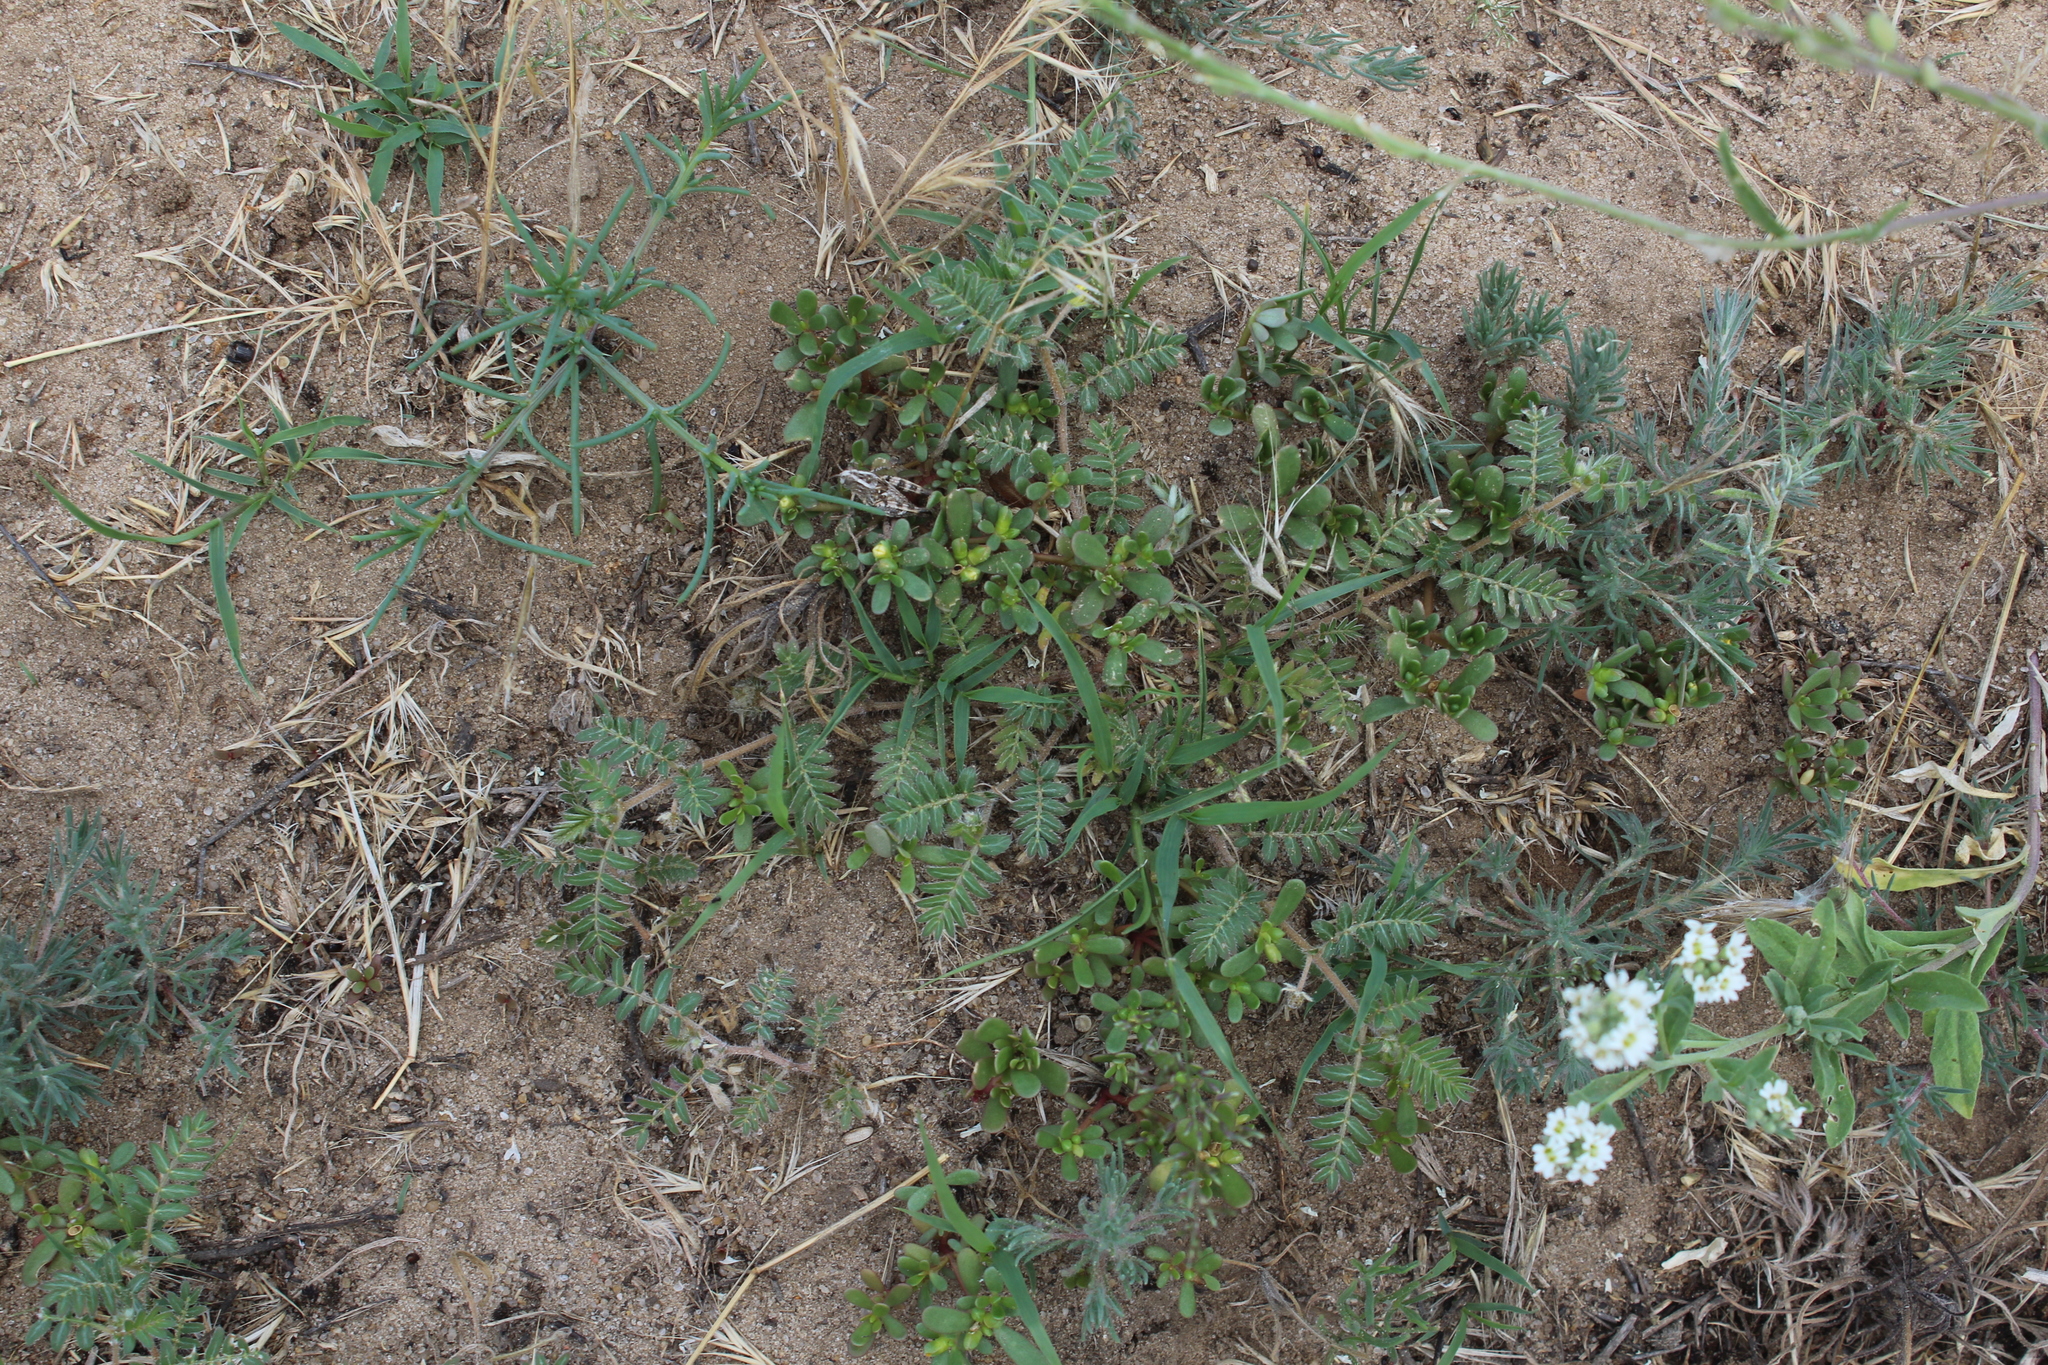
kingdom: Plantae
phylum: Tracheophyta
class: Magnoliopsida
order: Caryophyllales
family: Portulacaceae
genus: Portulaca
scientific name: Portulaca oleracea
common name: Common purslane
